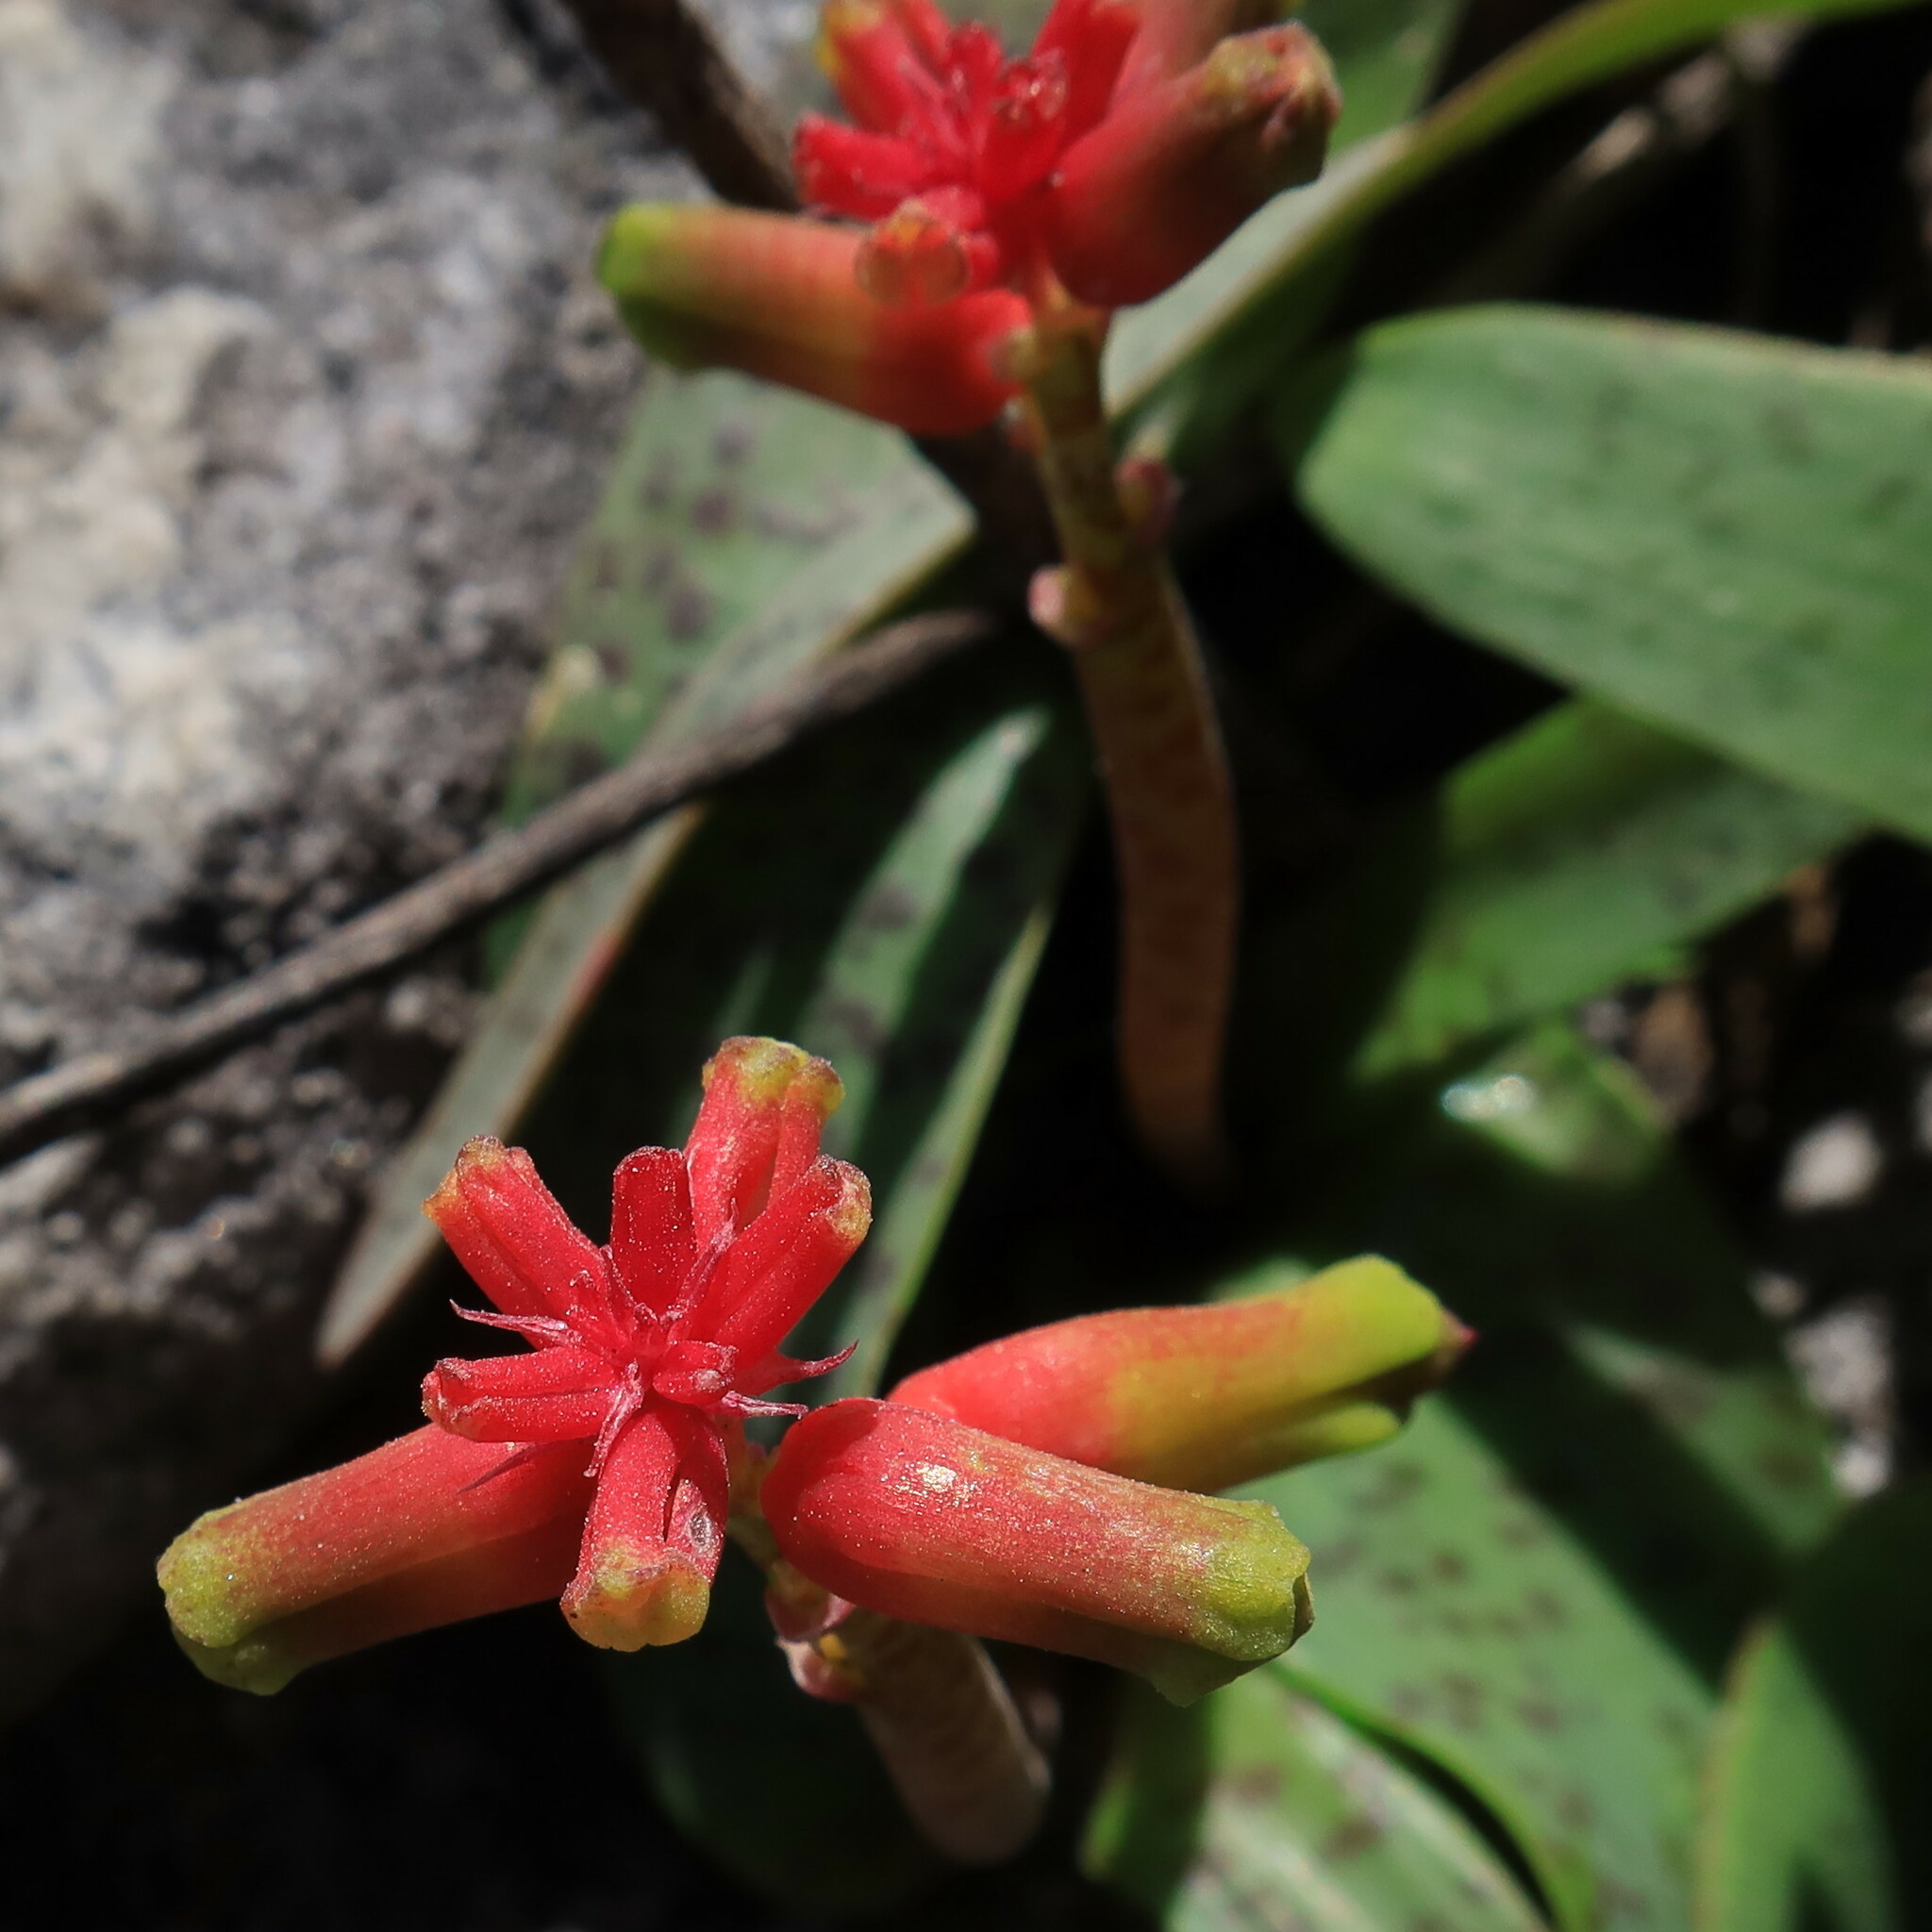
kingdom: Plantae
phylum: Tracheophyta
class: Liliopsida
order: Asparagales
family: Asparagaceae
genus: Lachenalia
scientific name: Lachenalia luteola
